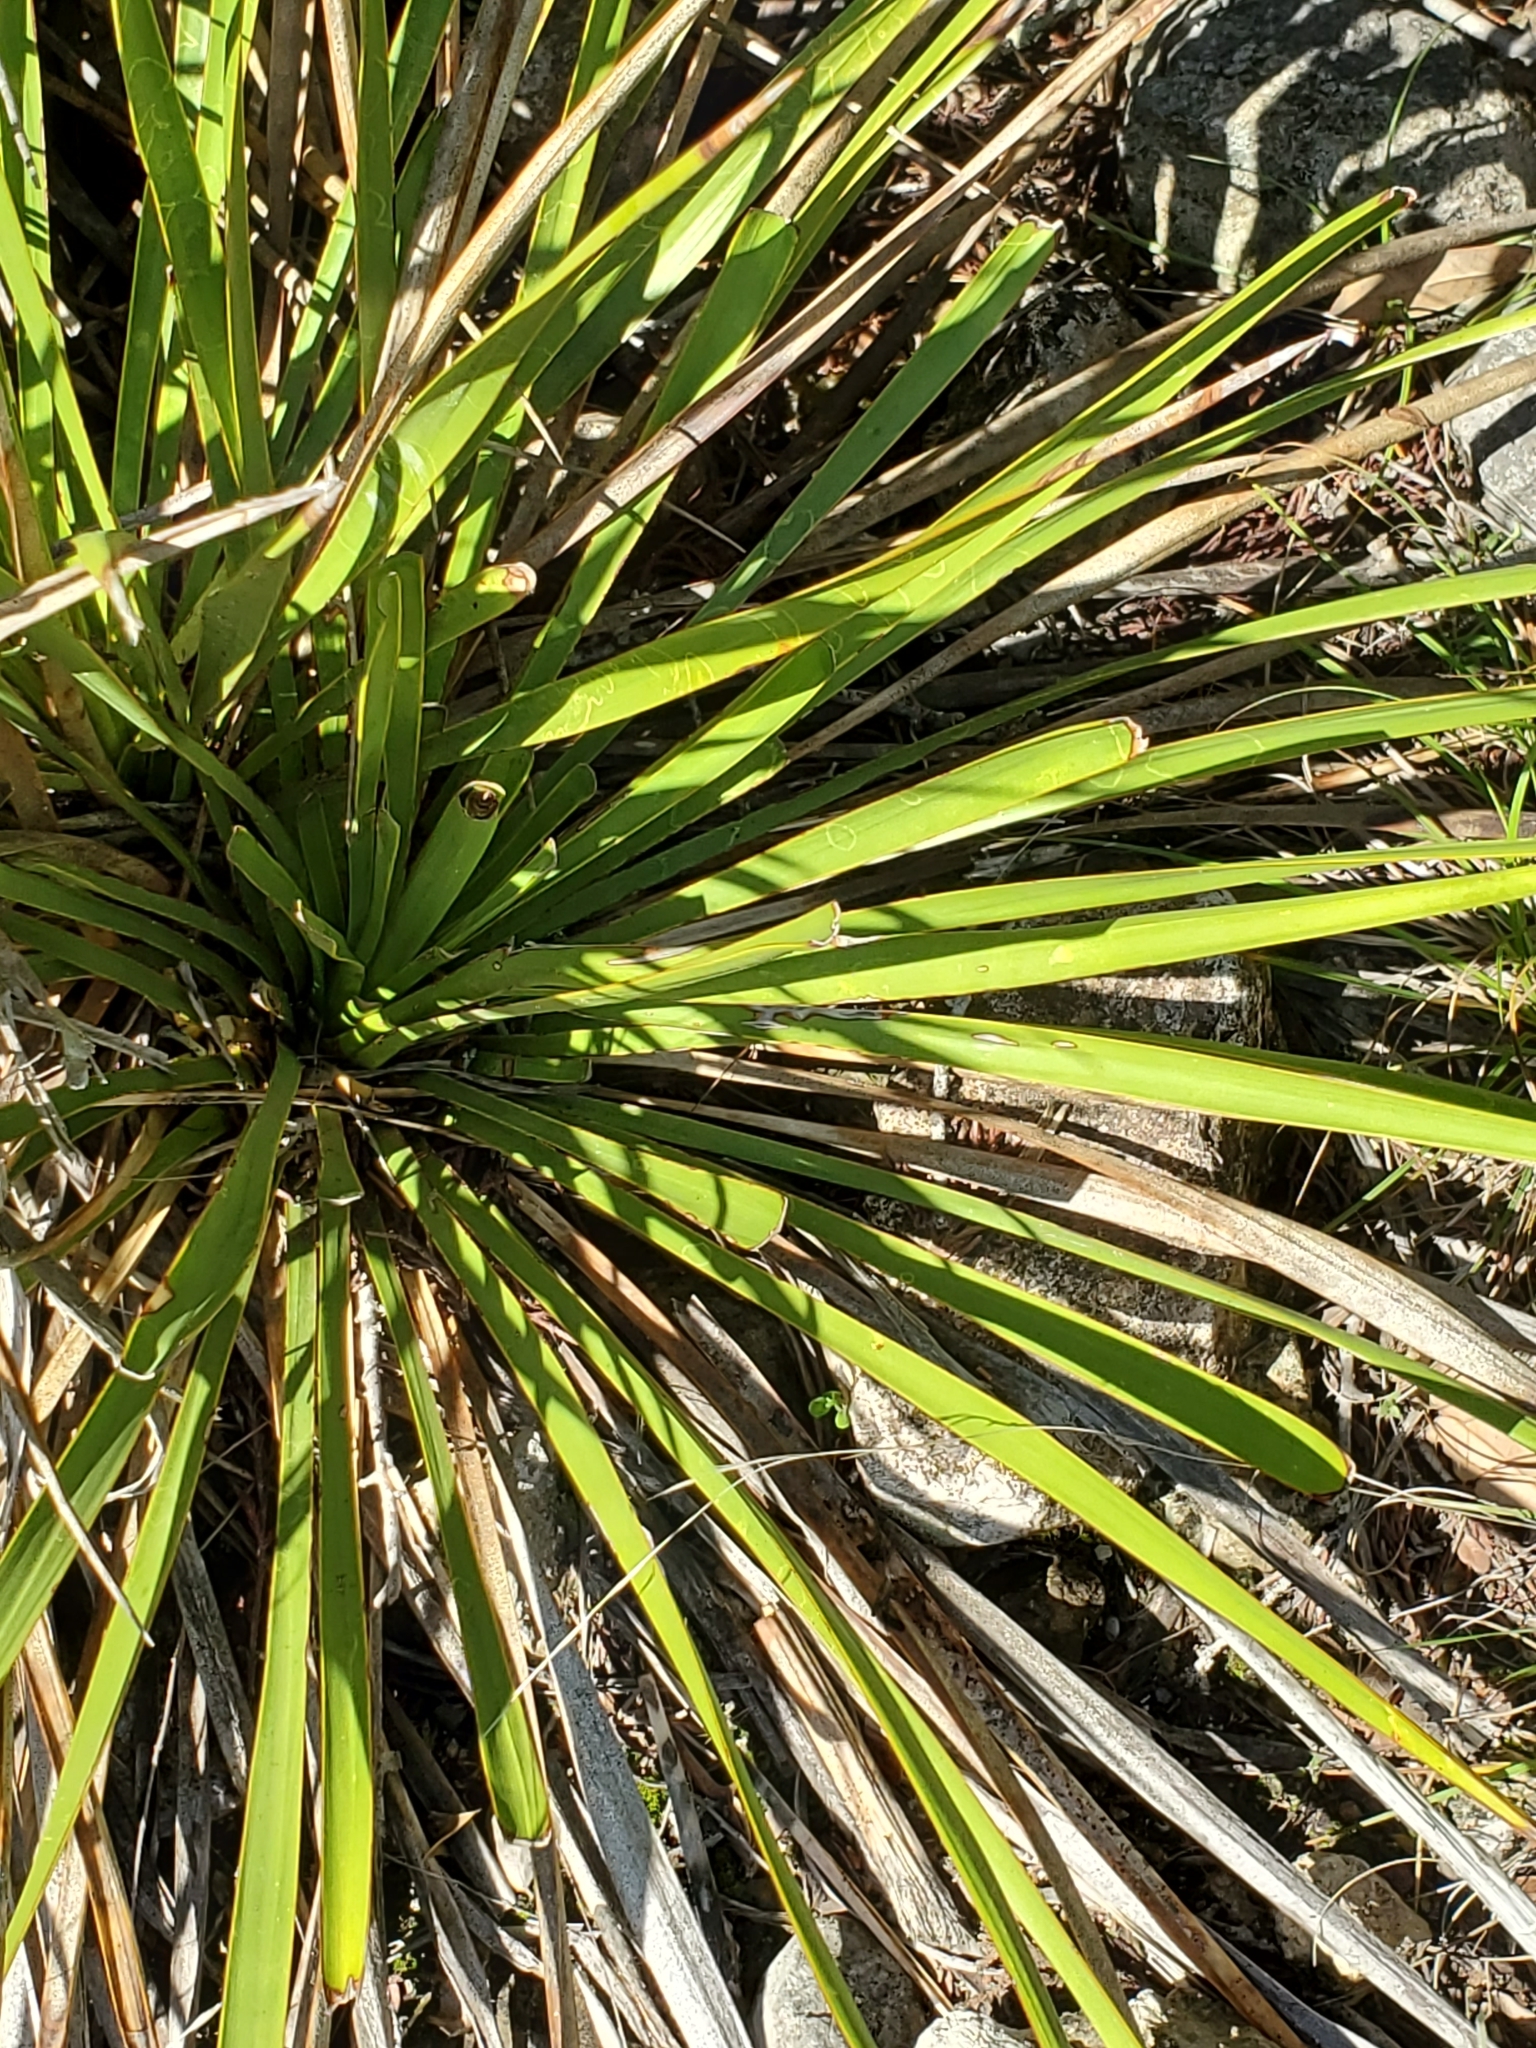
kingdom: Plantae
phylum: Tracheophyta
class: Liliopsida
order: Asparagales
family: Asparagaceae
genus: Yucca
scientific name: Yucca rupicola
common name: Twisted-leaf spanish-dagger
